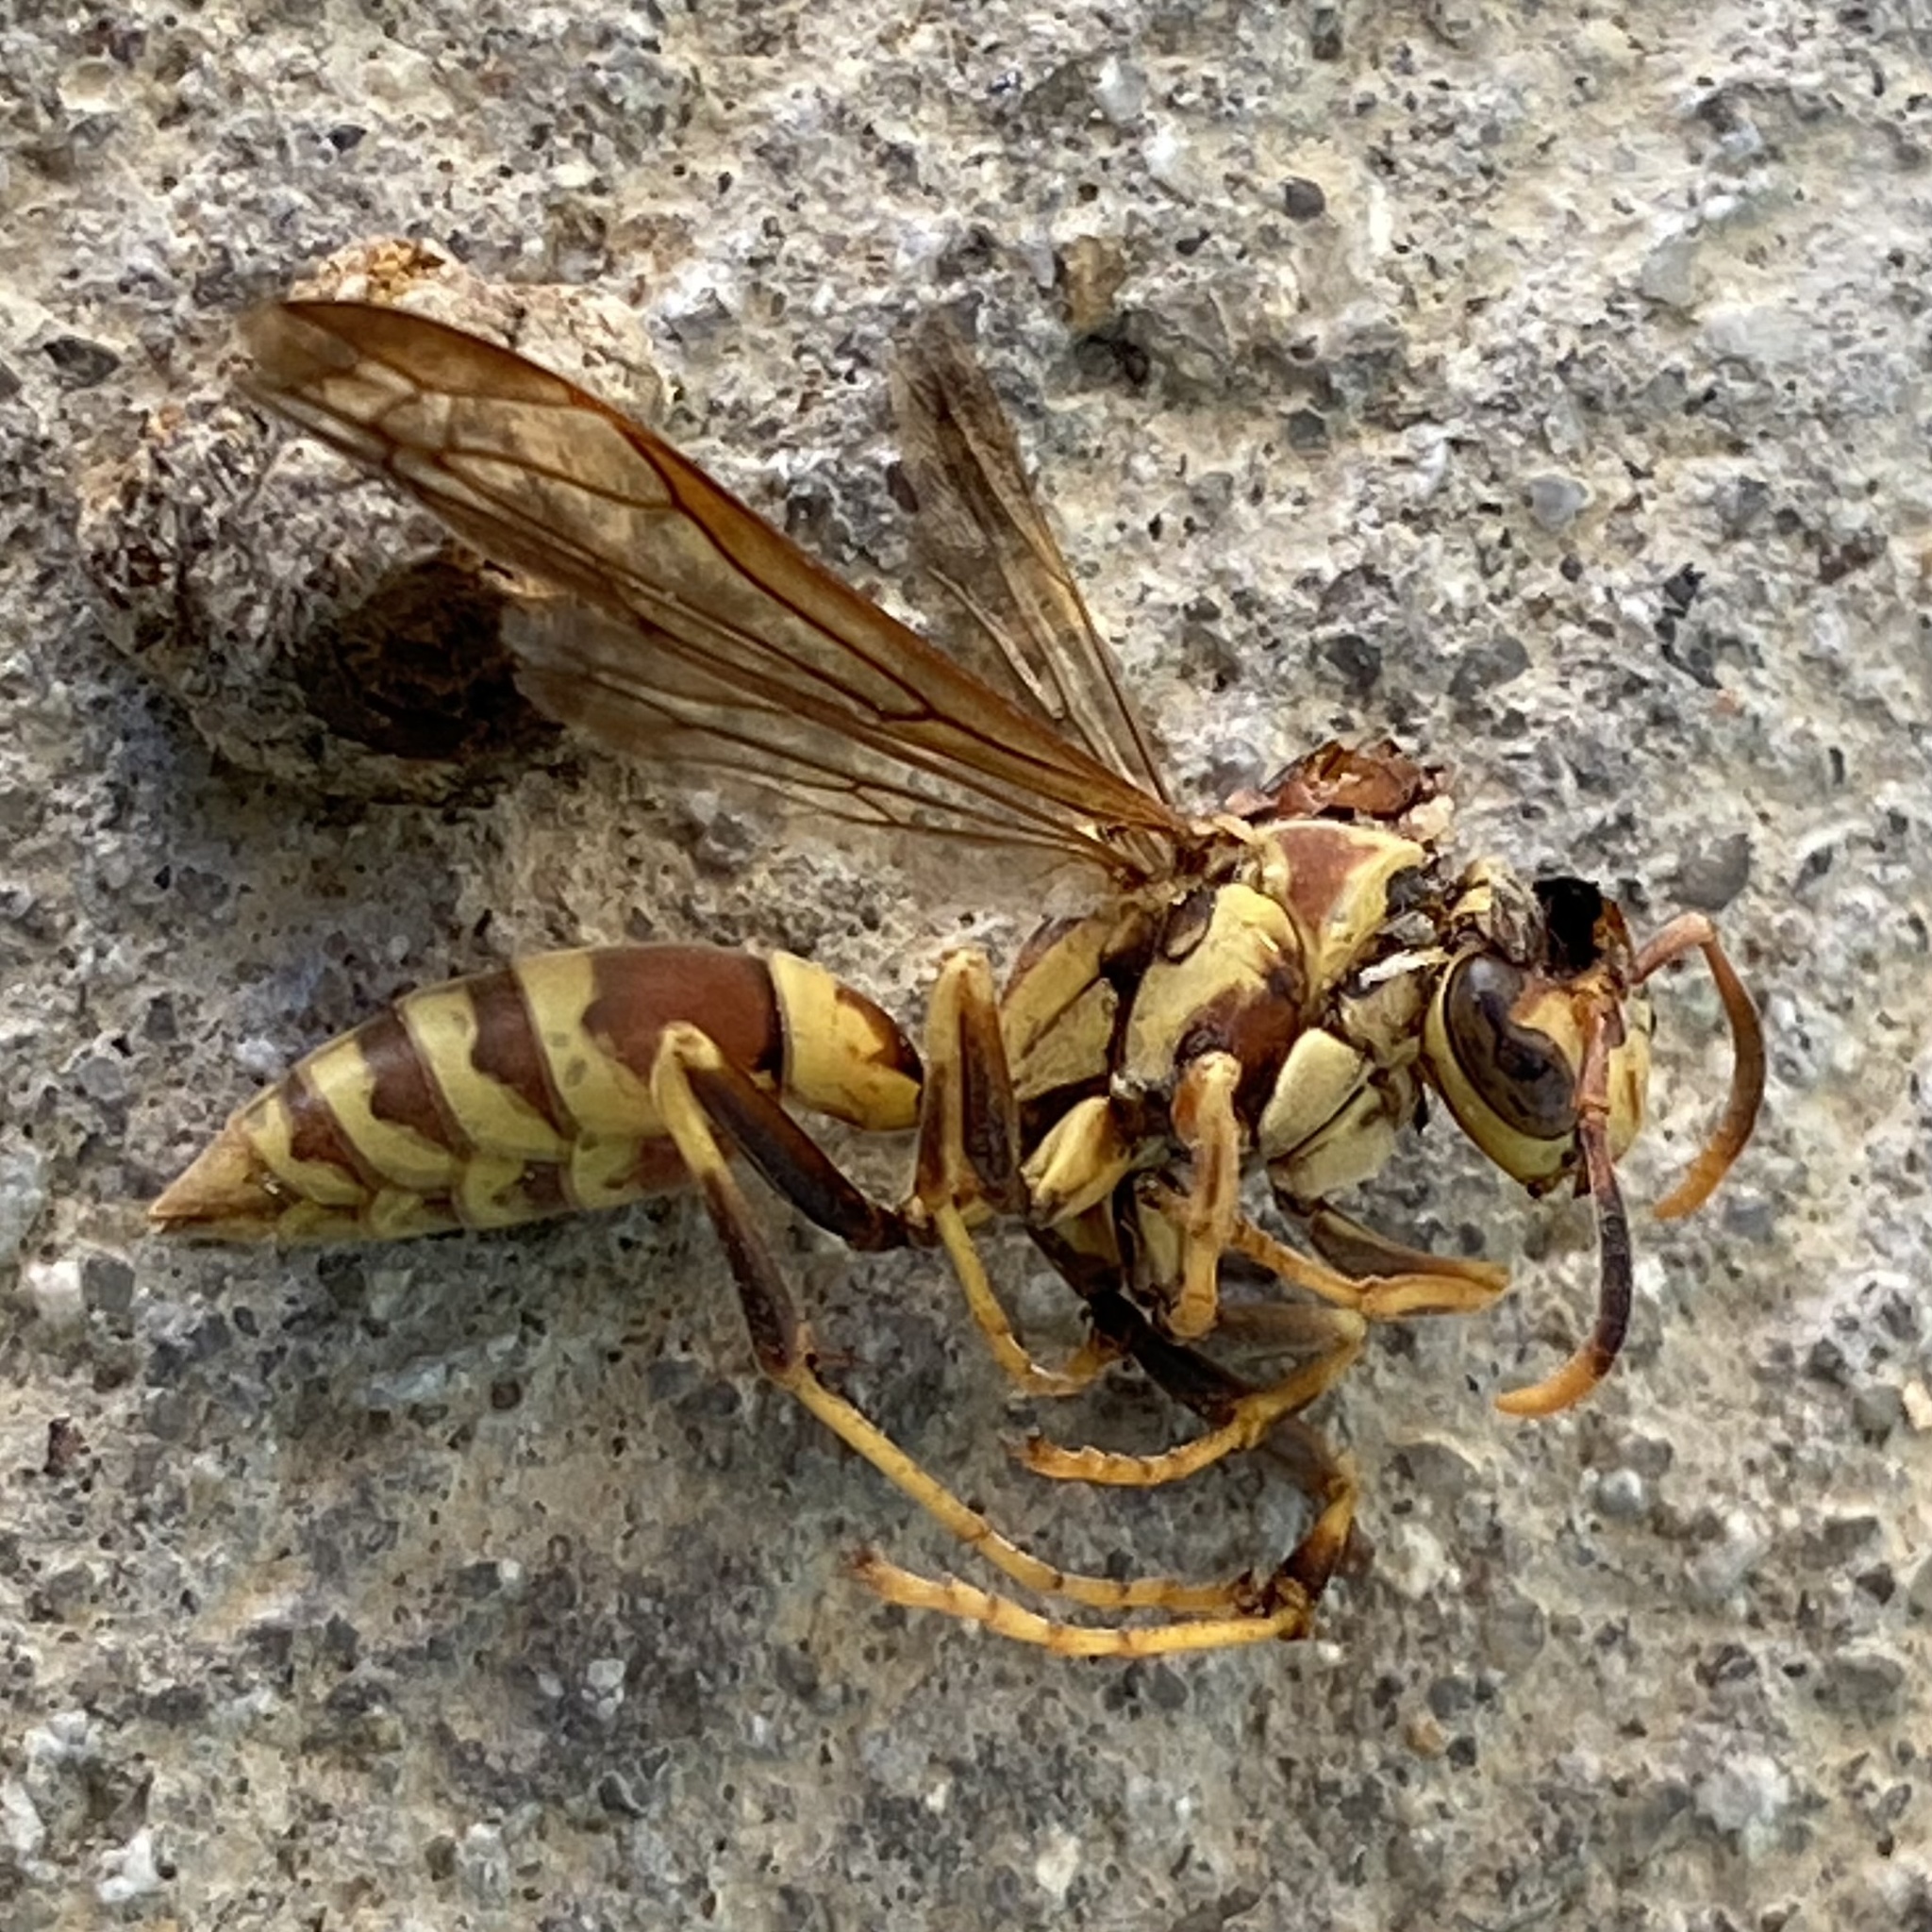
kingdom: Animalia
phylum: Arthropoda
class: Insecta
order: Hymenoptera
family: Eumenidae
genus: Polistes
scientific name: Polistes exclamans
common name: Paper wasp
